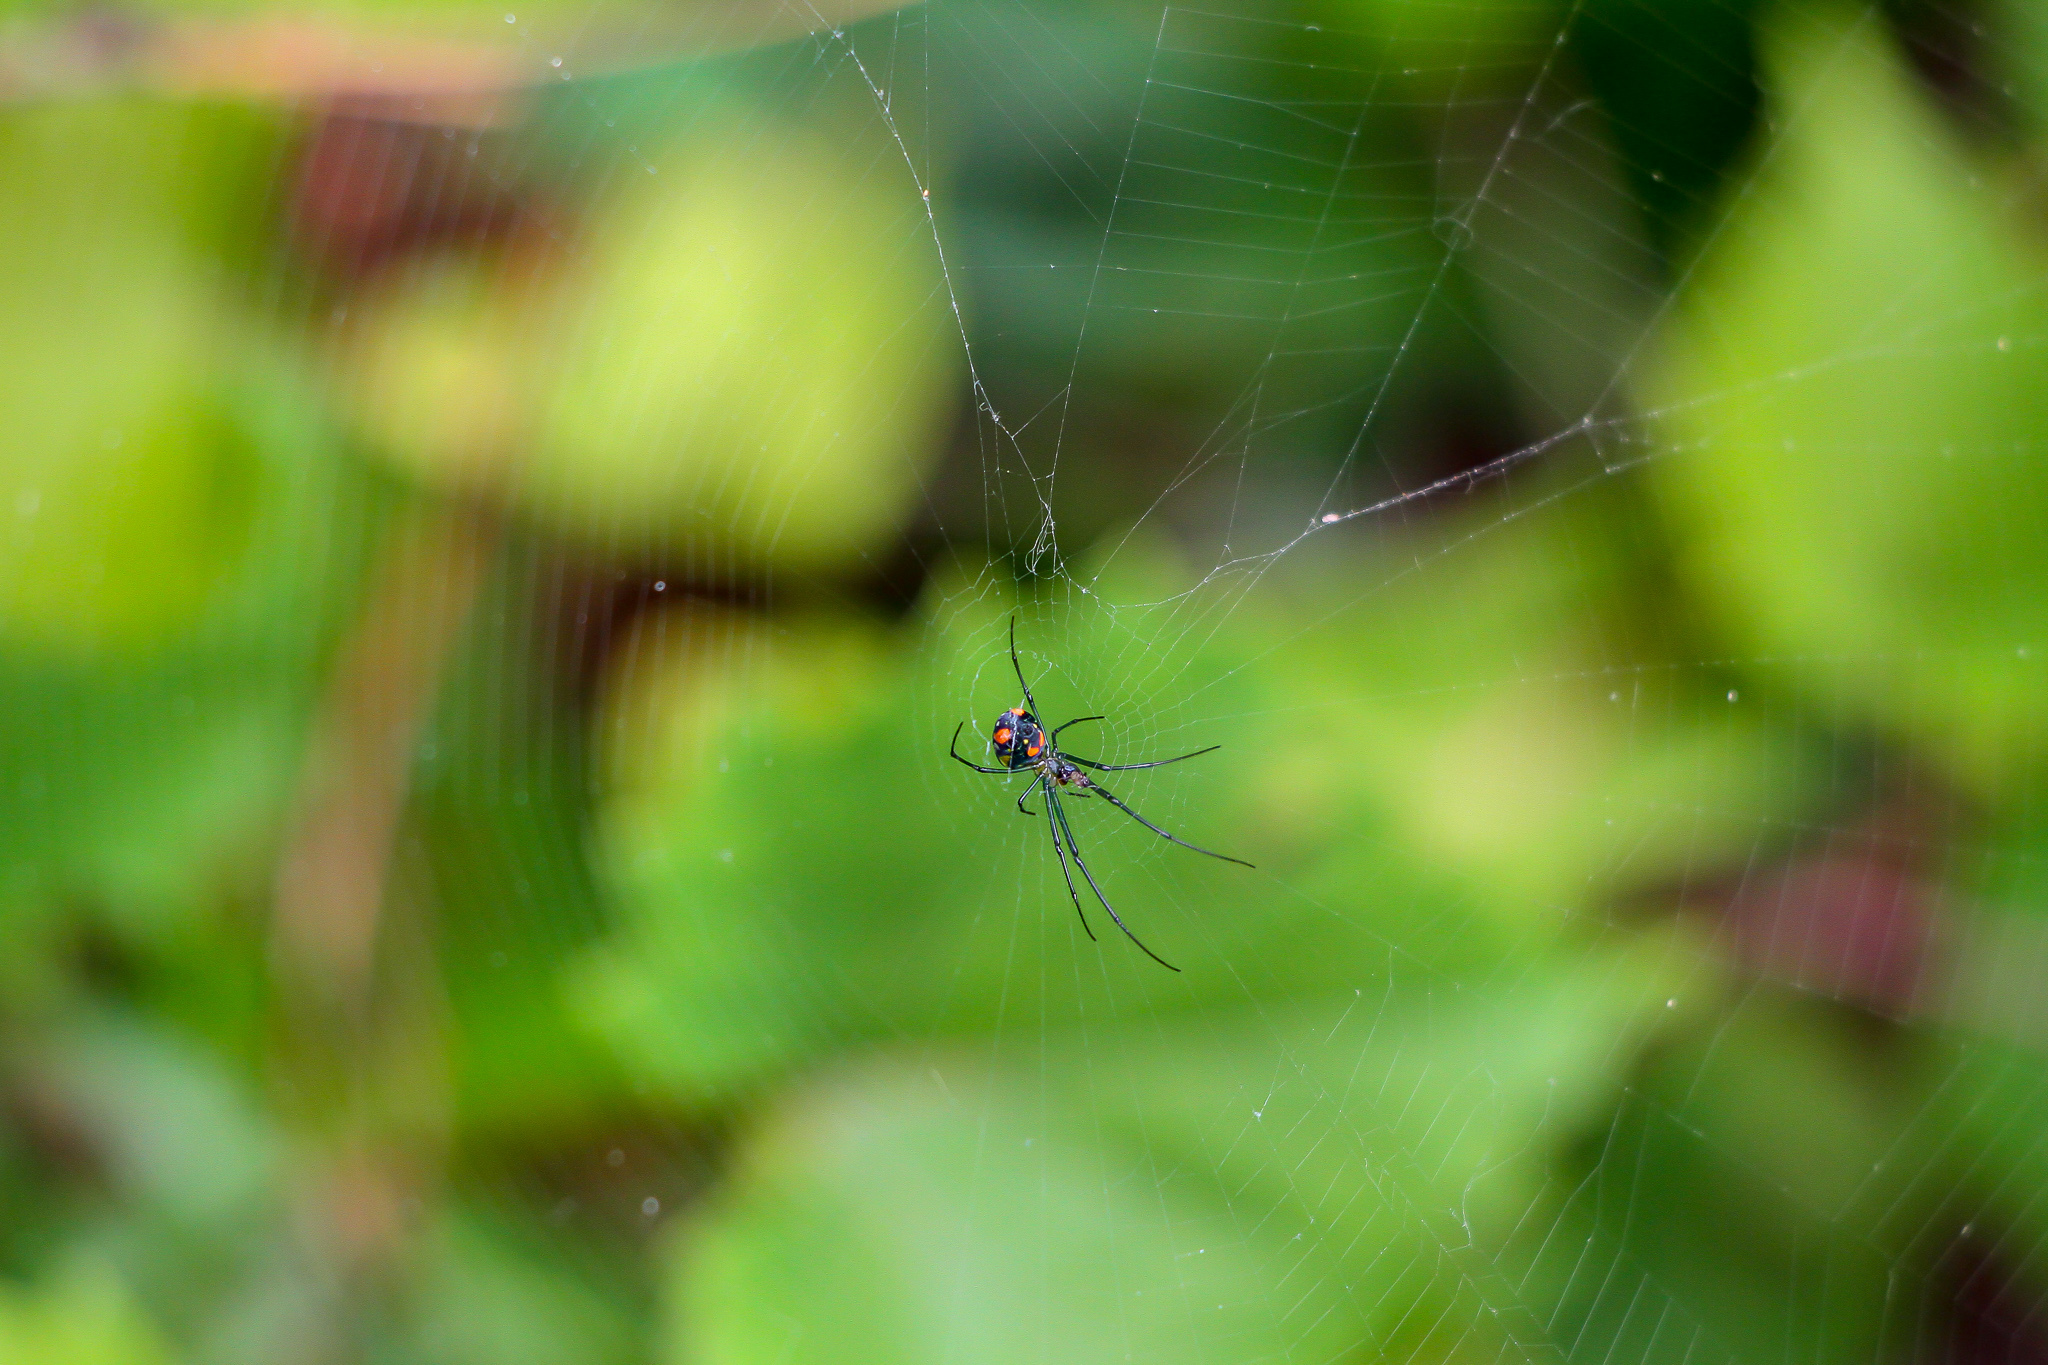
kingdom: Animalia
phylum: Arthropoda
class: Arachnida
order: Araneae
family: Tetragnathidae
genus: Leucauge
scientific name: Leucauge argyrobapta
